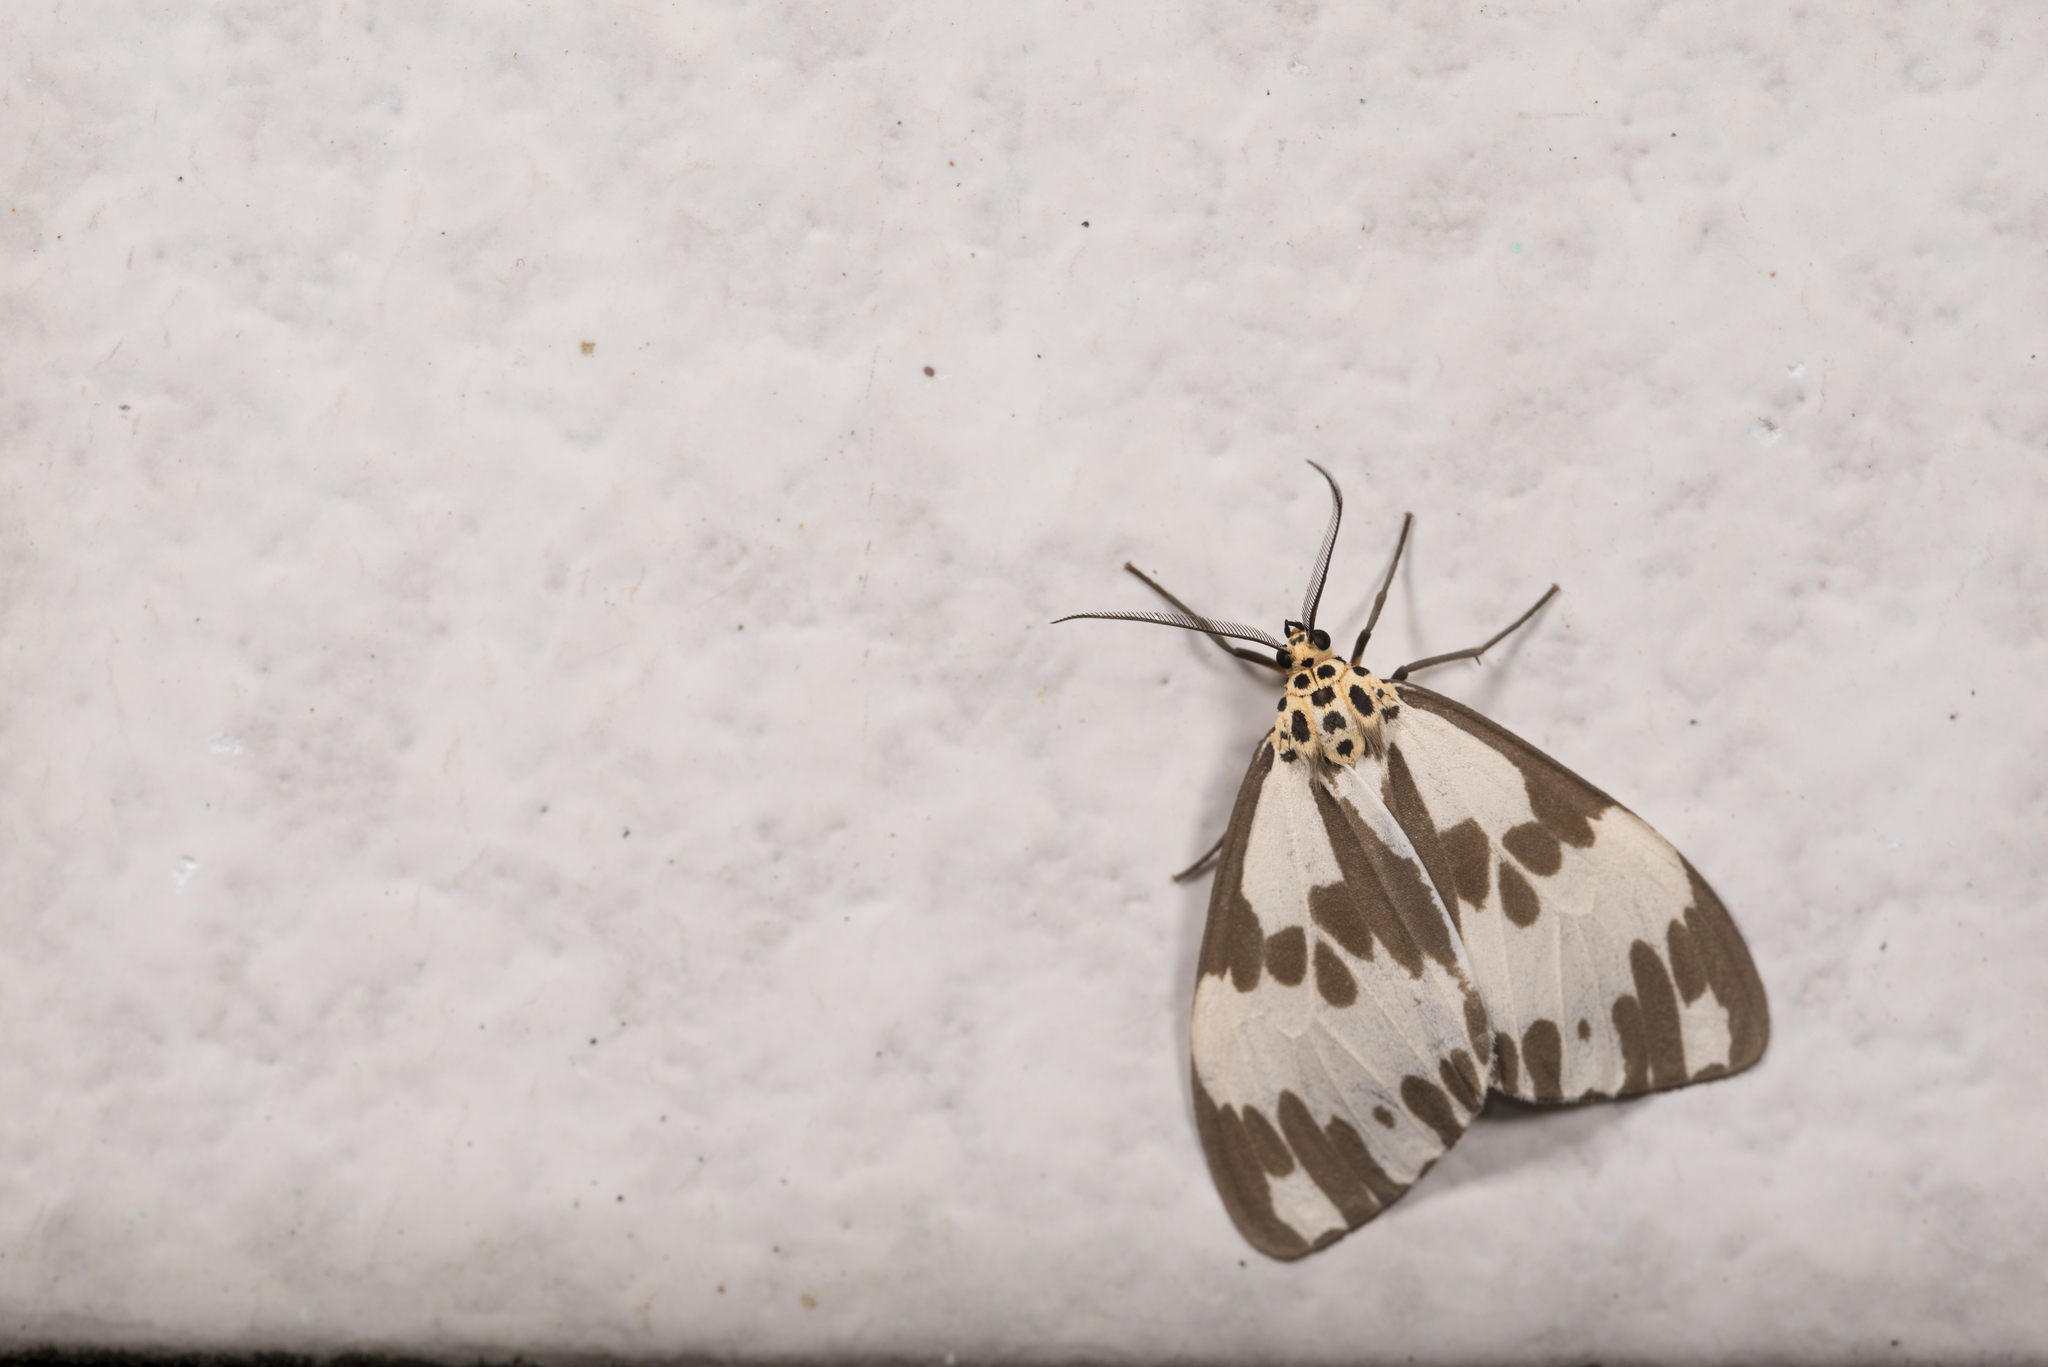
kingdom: Animalia
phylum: Arthropoda
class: Insecta
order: Lepidoptera
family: Erebidae
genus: Nyctemera
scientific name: Nyctemera carissima
